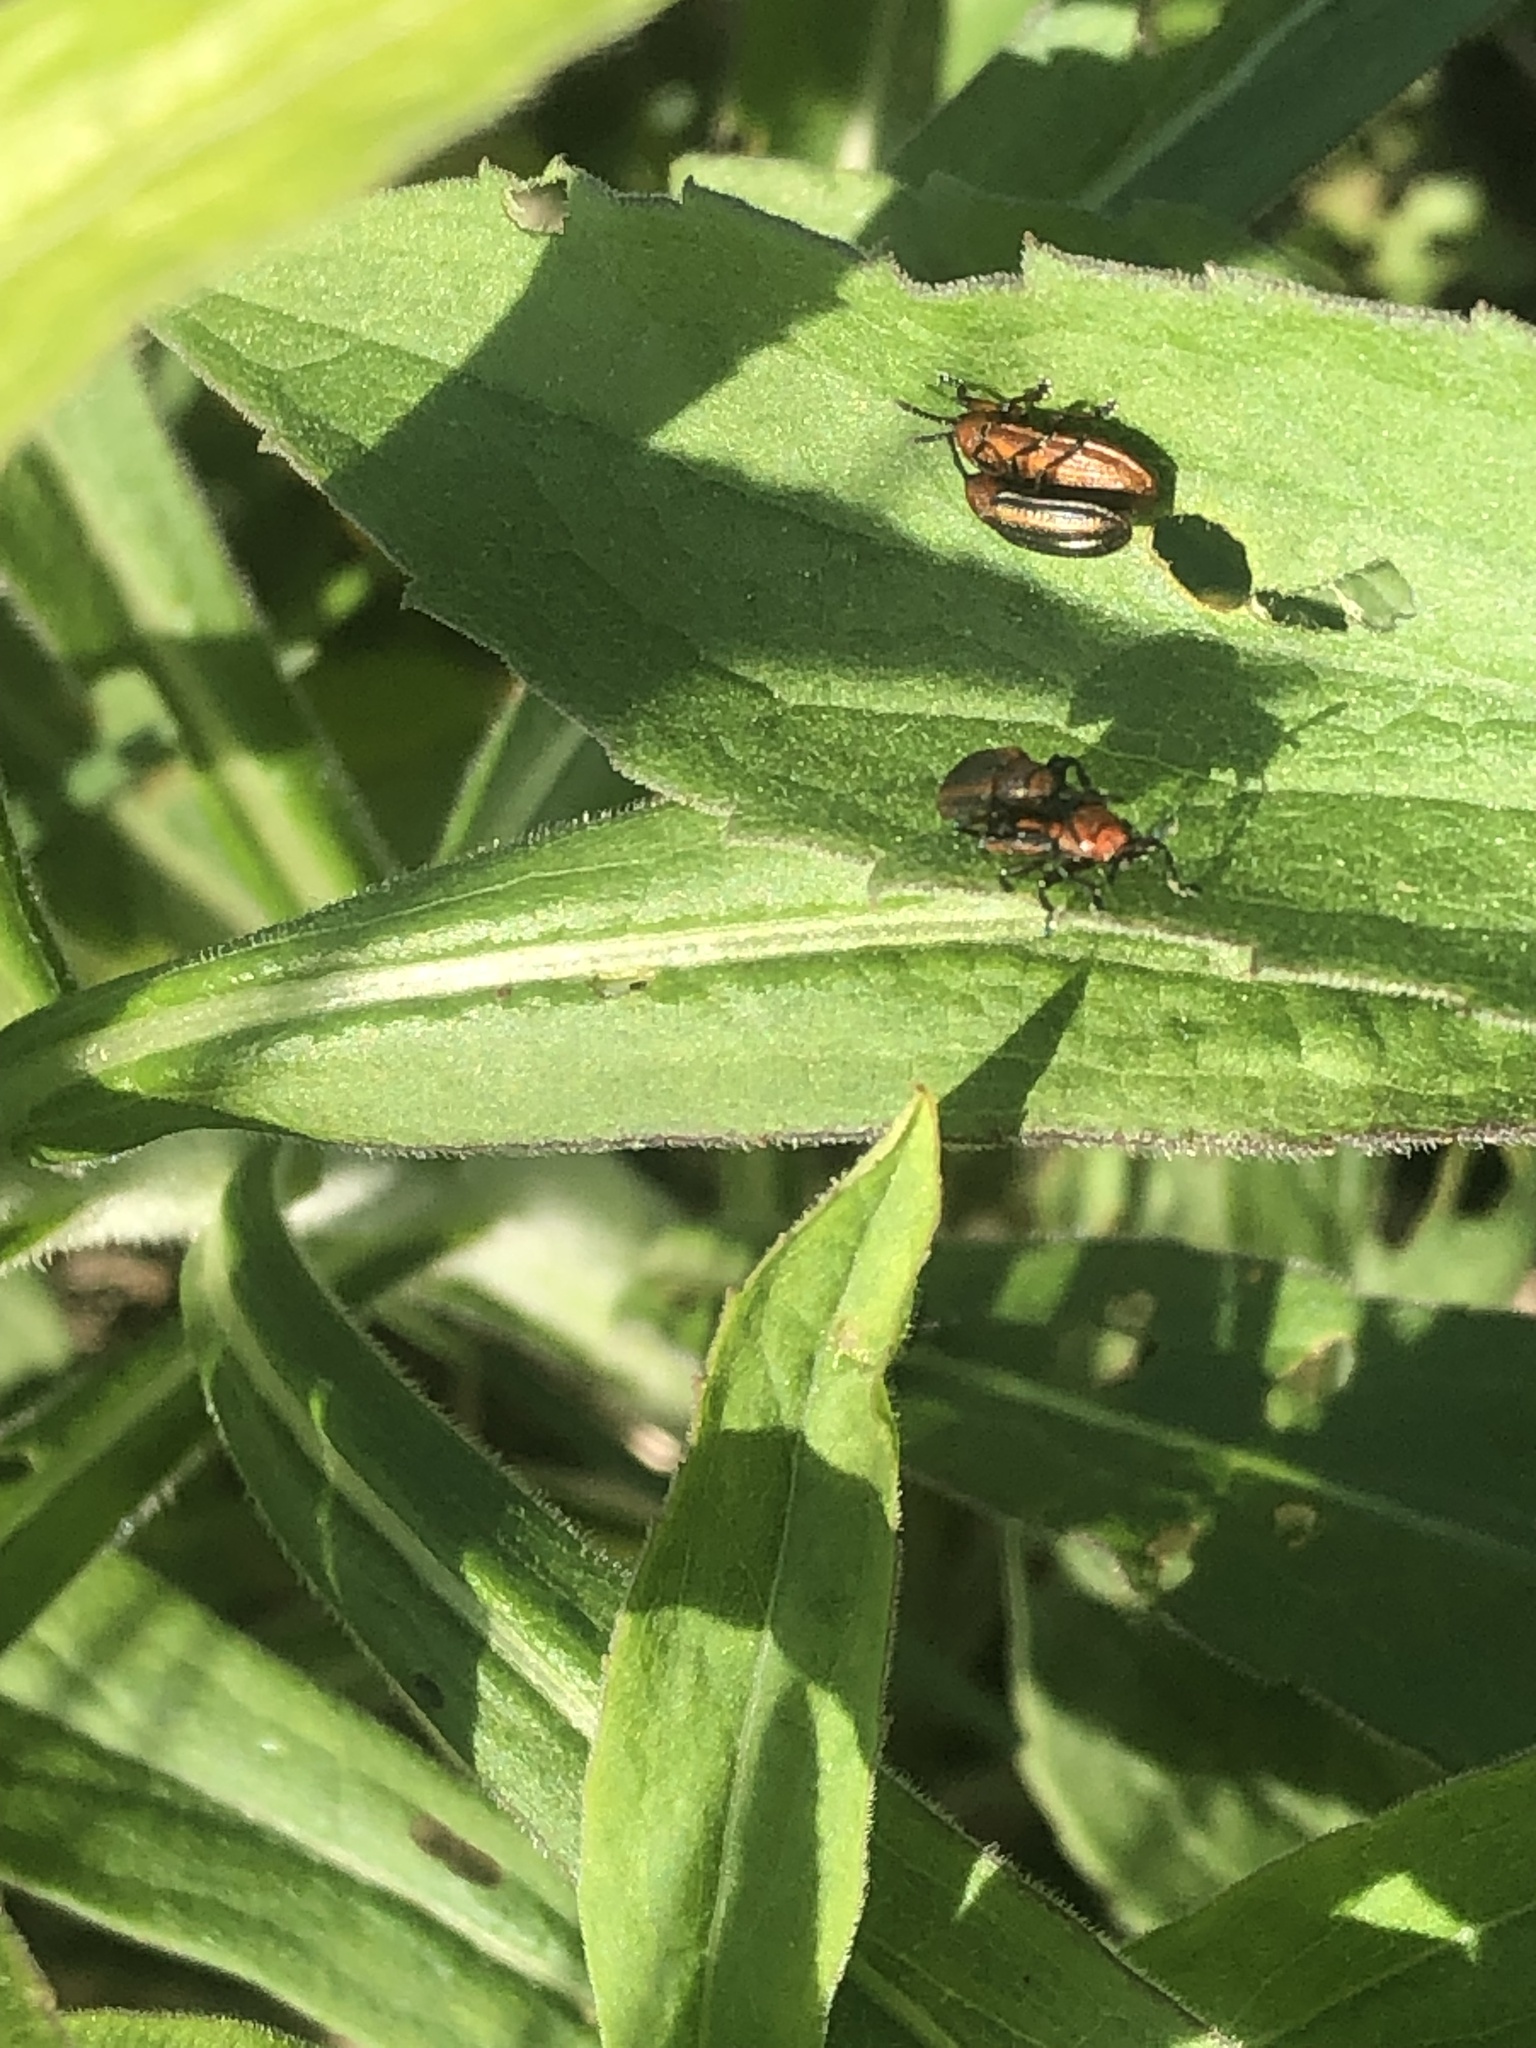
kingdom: Animalia
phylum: Arthropoda
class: Insecta
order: Coleoptera
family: Chrysomelidae
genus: Microrhopala
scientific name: Microrhopala vittata
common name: Goldenrod leaf miner beetle
